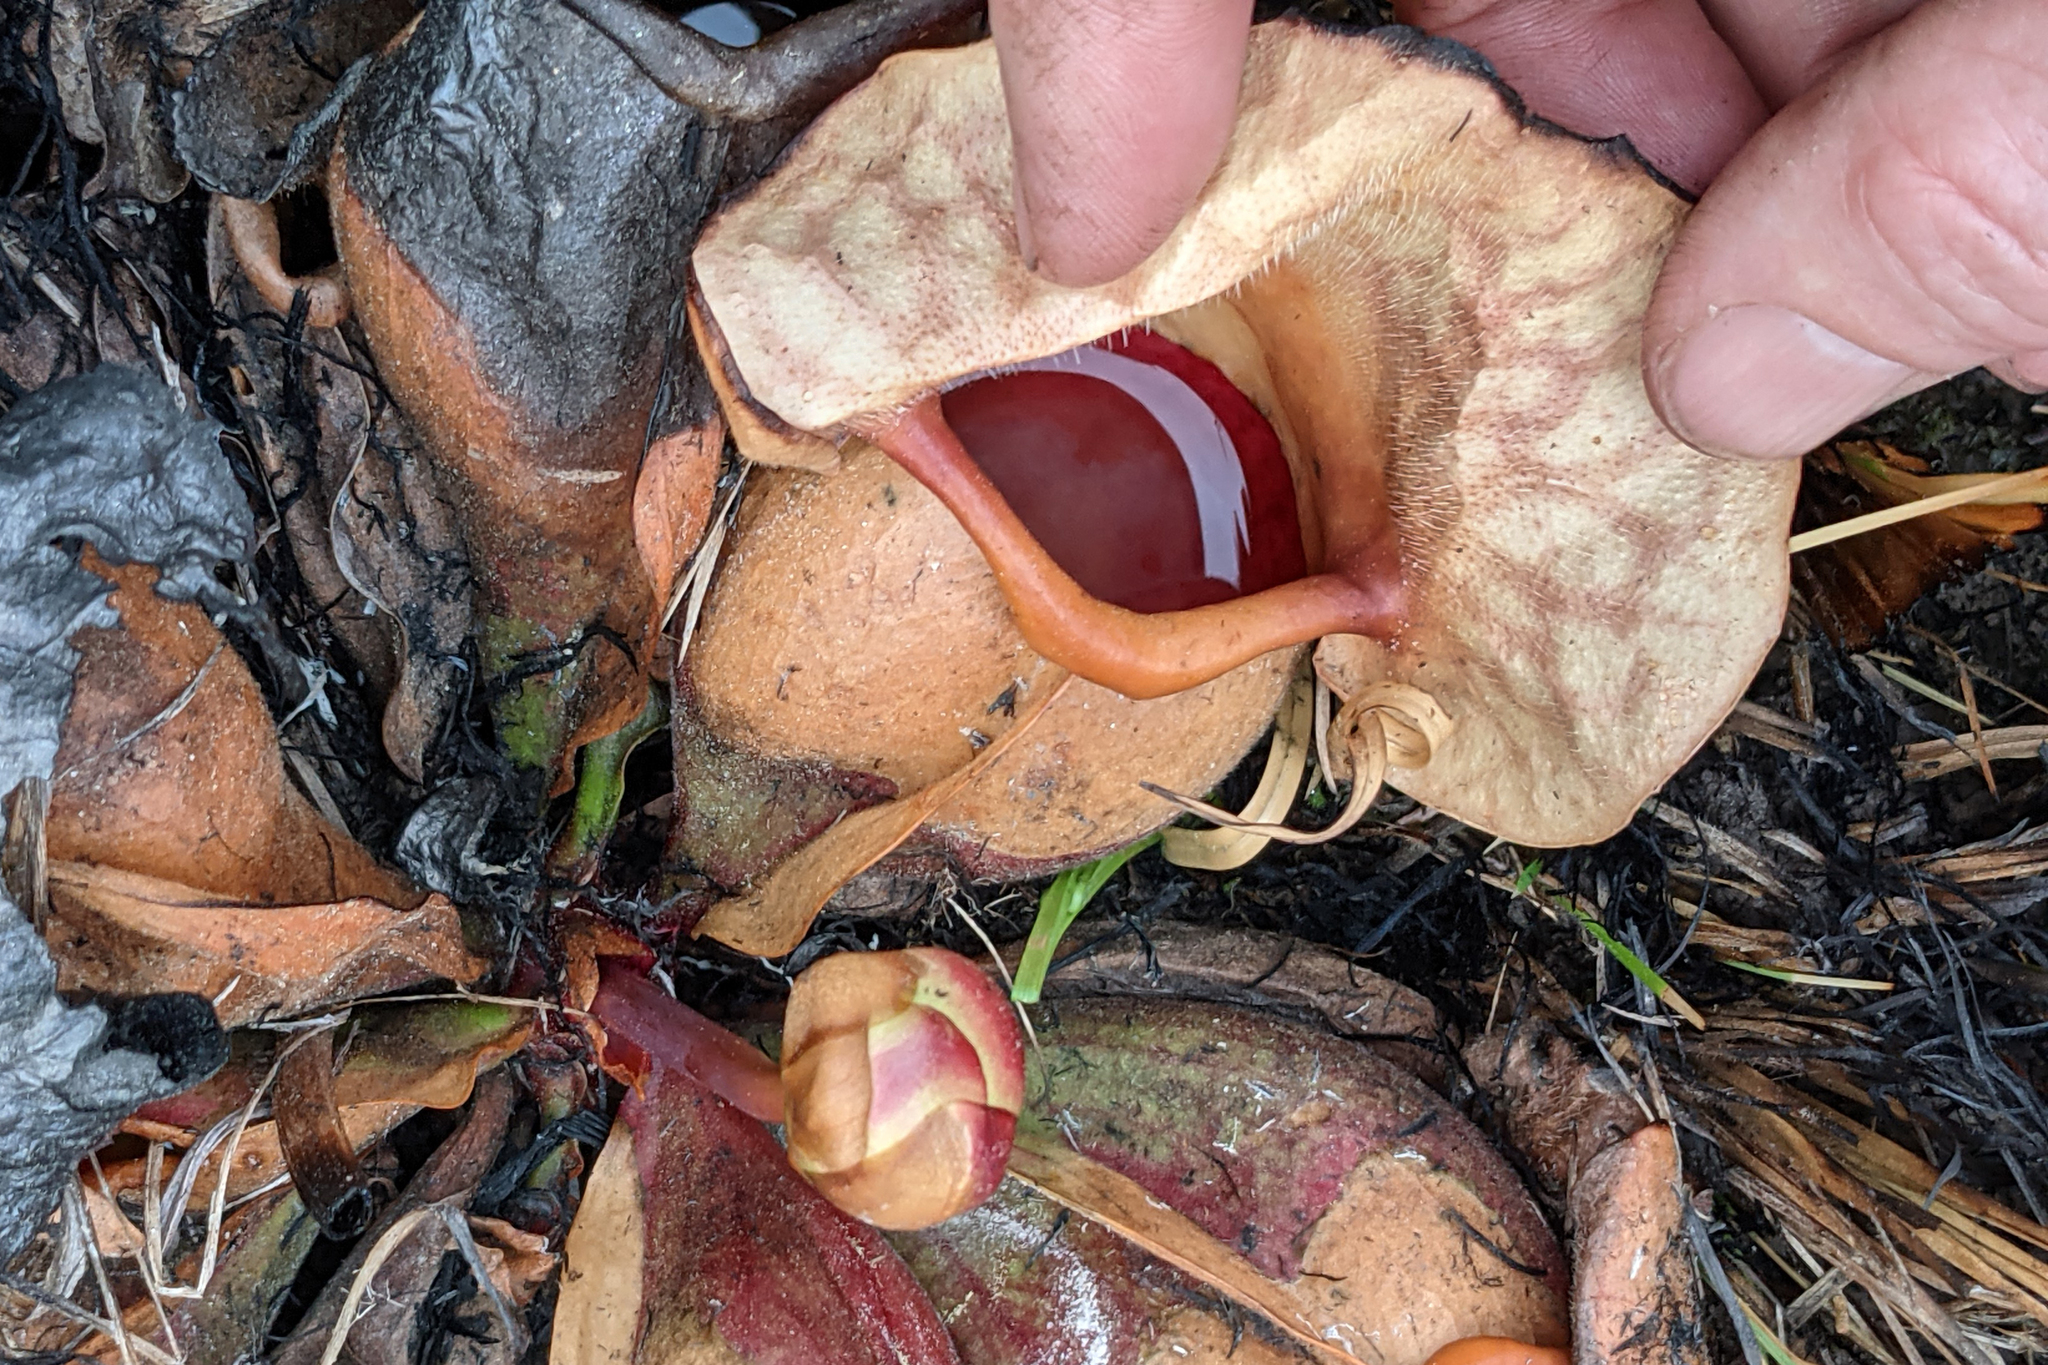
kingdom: Plantae
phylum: Tracheophyta
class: Magnoliopsida
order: Ericales
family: Sarraceniaceae
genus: Sarracenia
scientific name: Sarracenia rosea
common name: Pink pitcherplant
